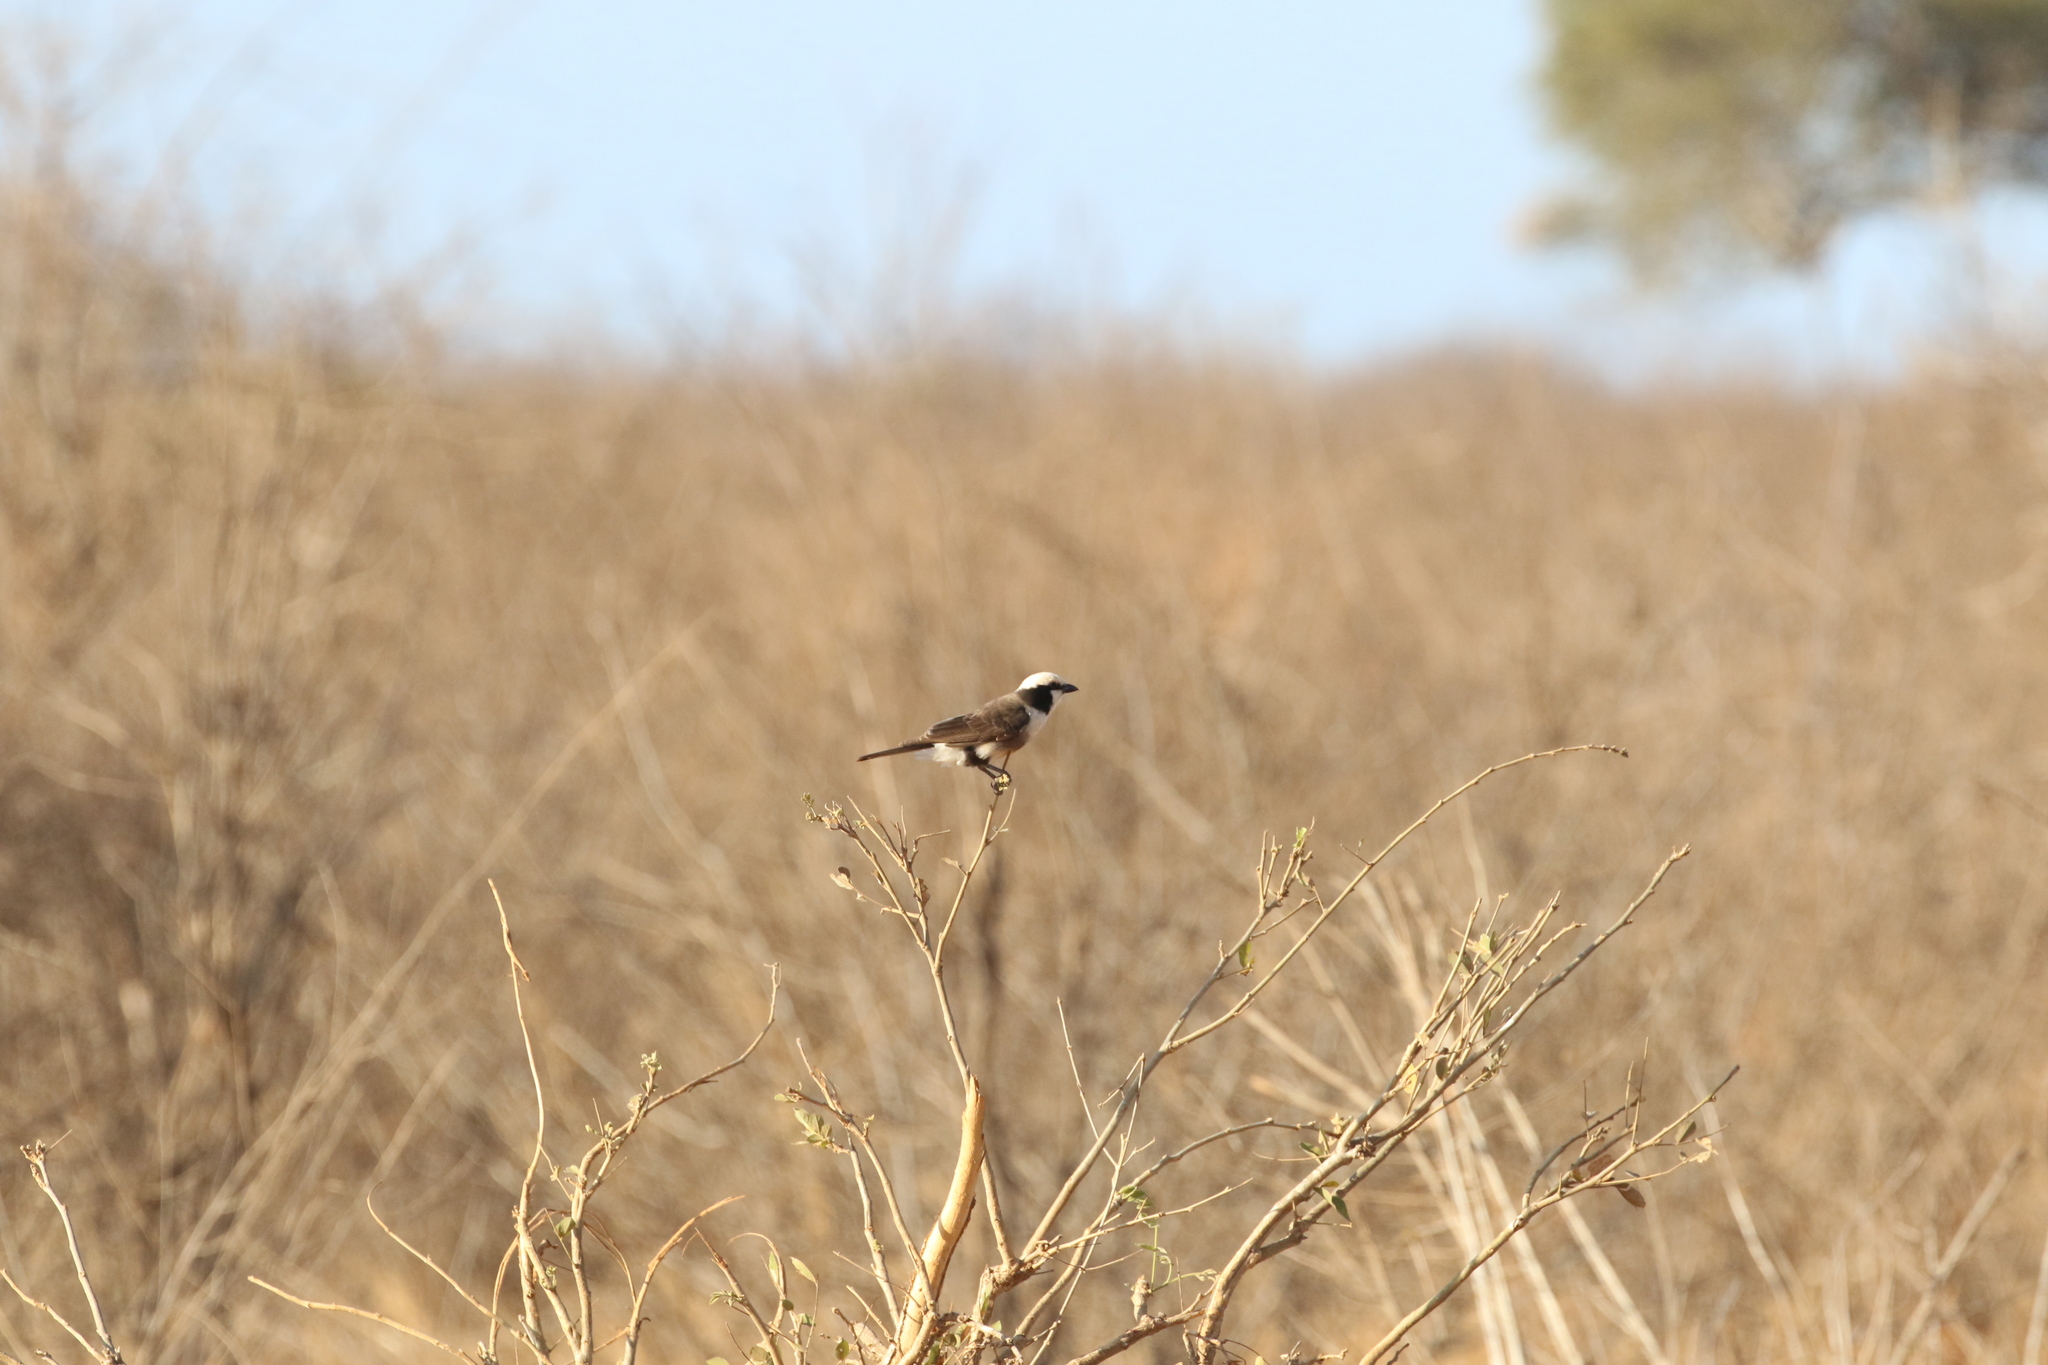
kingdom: Animalia
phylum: Chordata
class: Aves
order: Passeriformes
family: Laniidae
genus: Eurocephalus
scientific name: Eurocephalus ruppelli
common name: Northern white-crowned shrike
